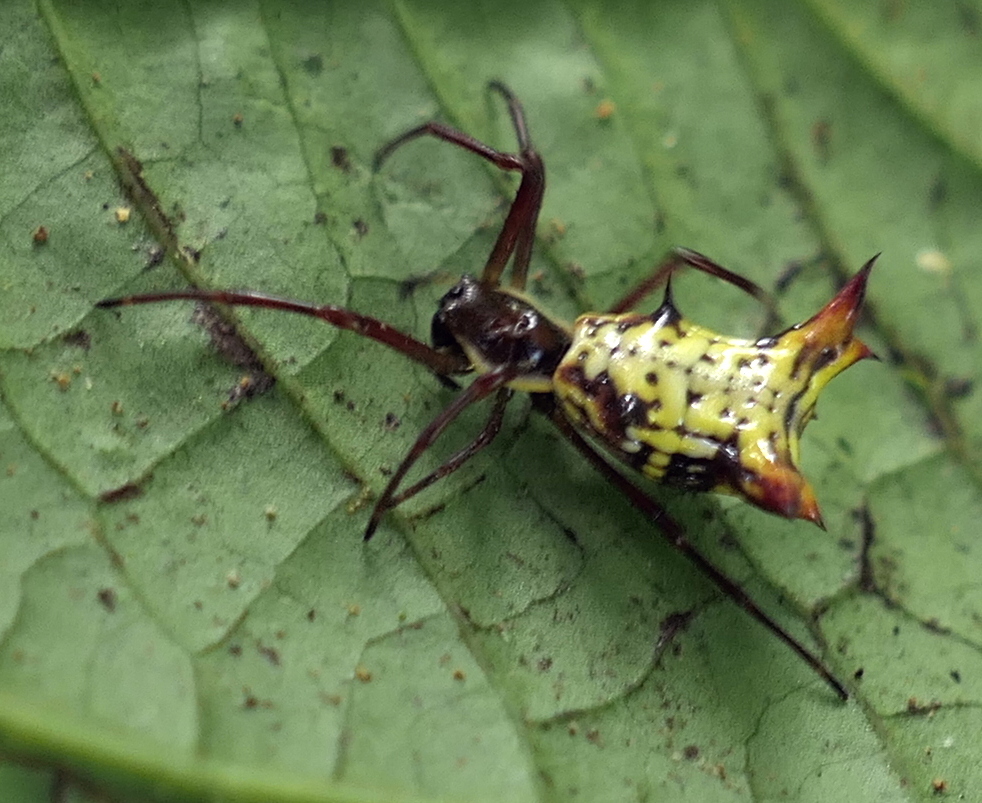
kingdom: Animalia
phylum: Arthropoda
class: Arachnida
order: Araneae
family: Araneidae
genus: Micrathena
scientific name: Micrathena fissispina
